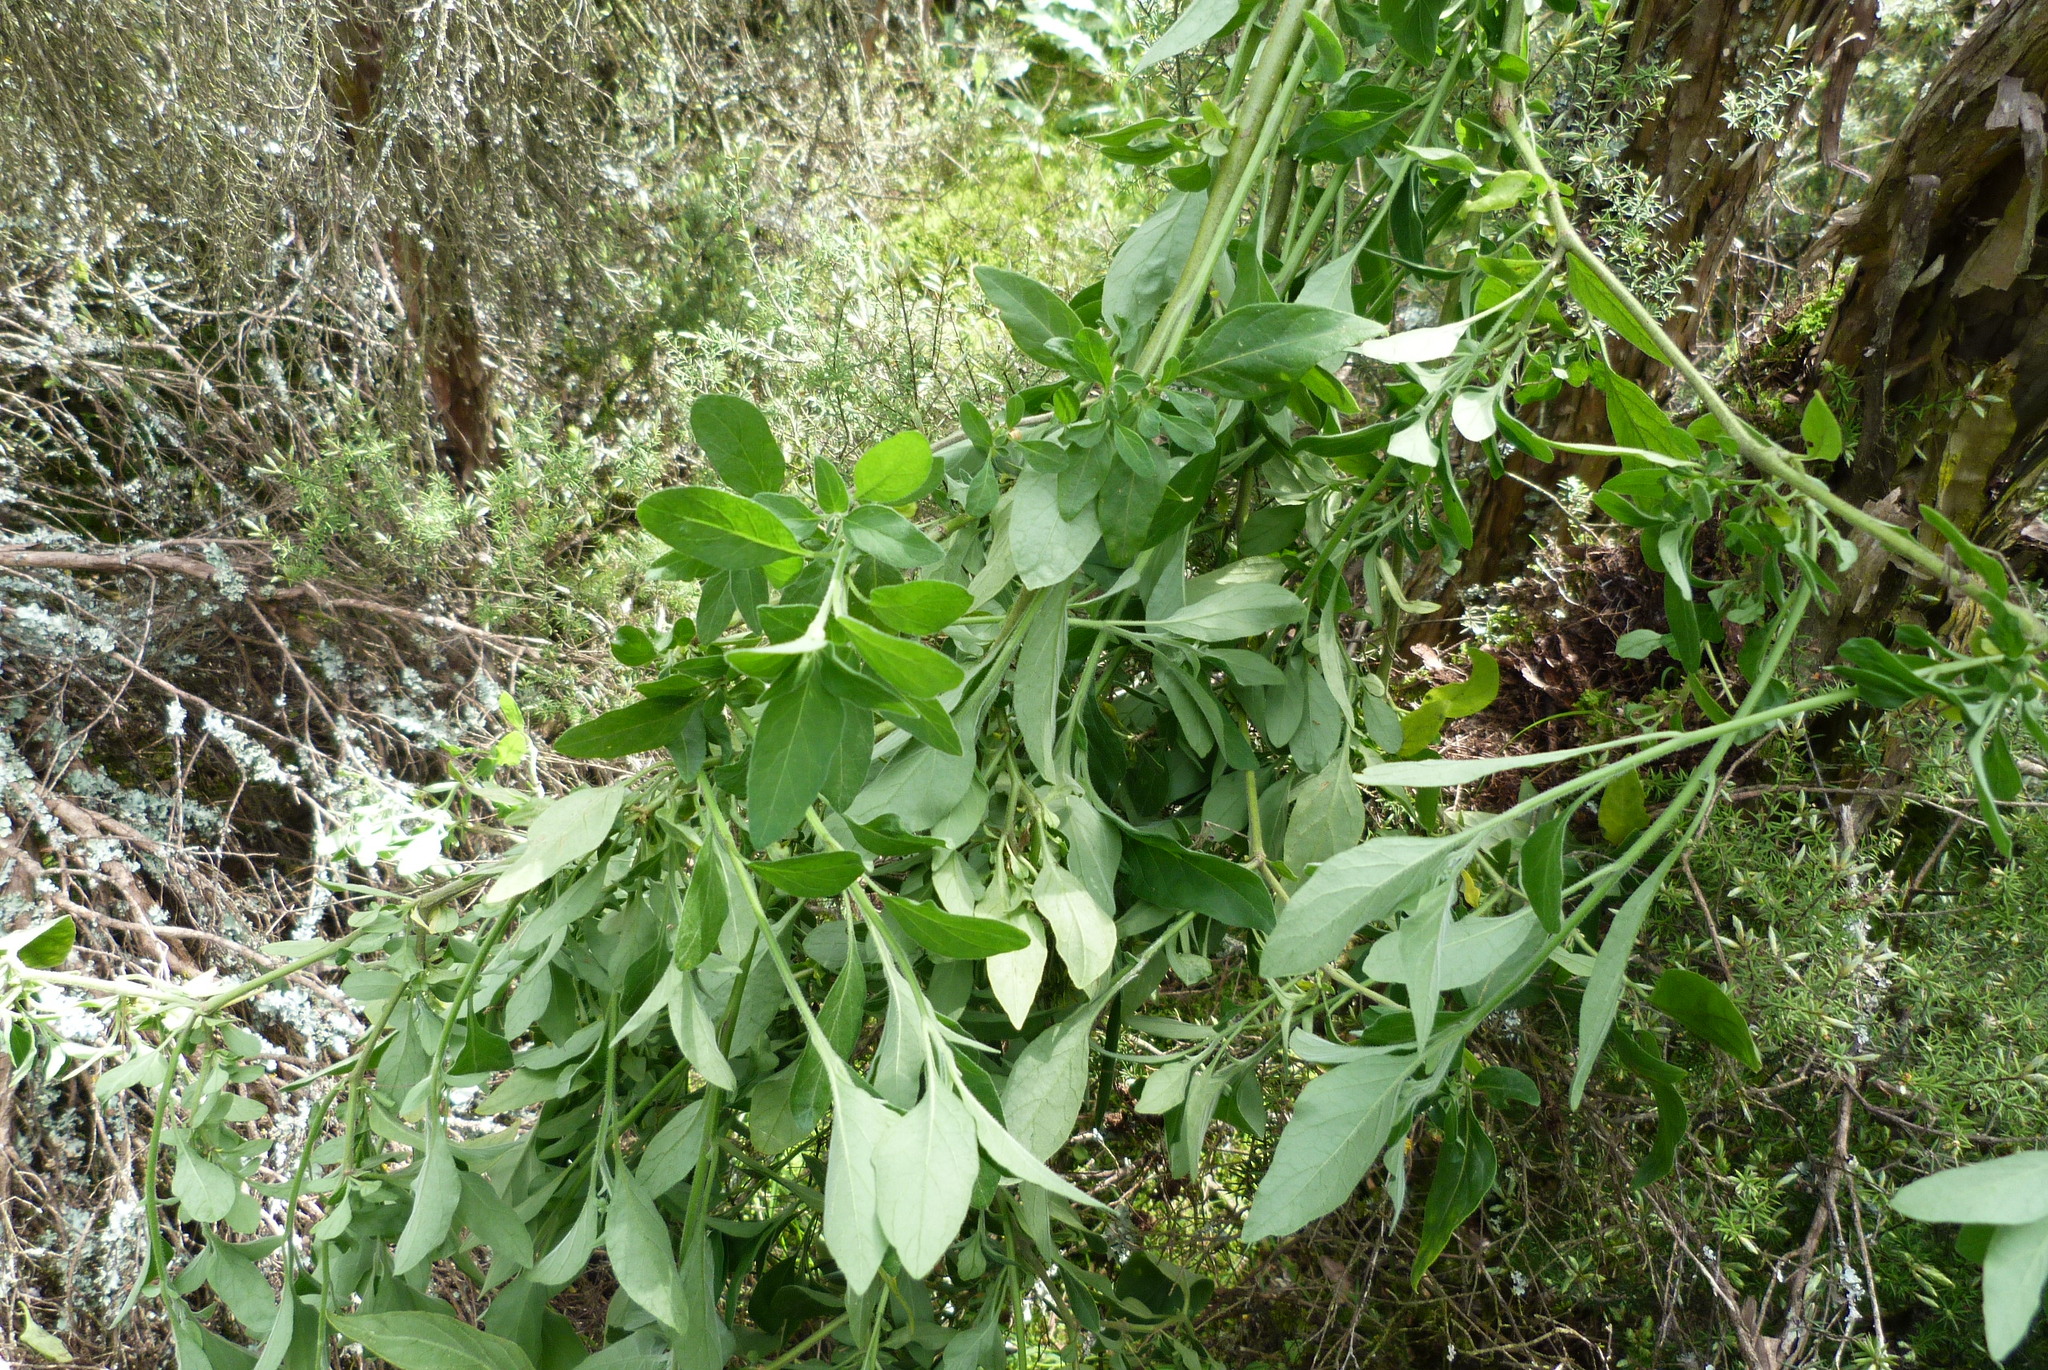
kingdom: Plantae
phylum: Tracheophyta
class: Magnoliopsida
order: Solanales
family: Solanaceae
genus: Solanum
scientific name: Solanum chenopodioides
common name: Tall nightshade
